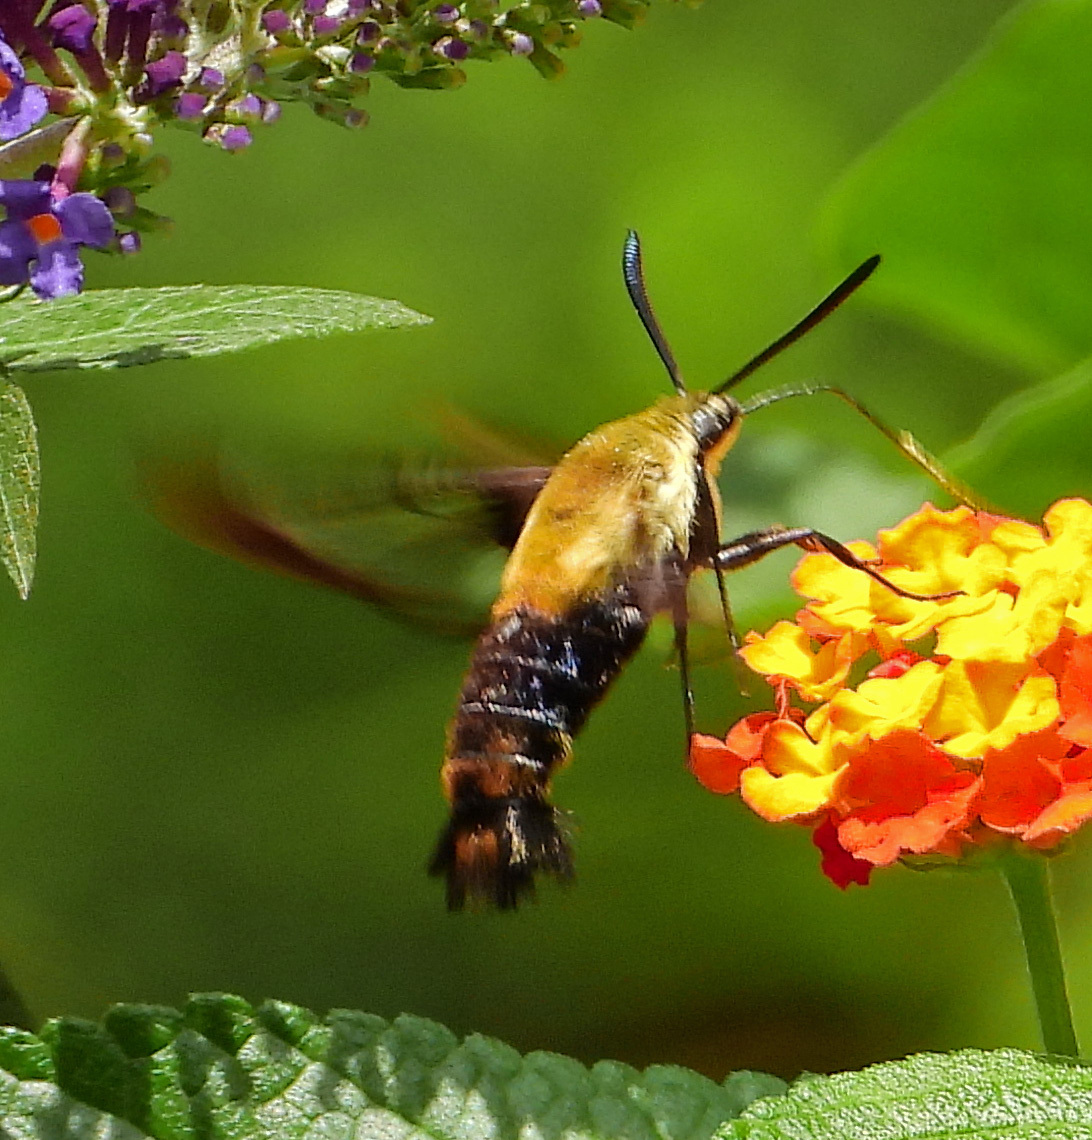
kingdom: Animalia
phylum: Arthropoda
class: Insecta
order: Lepidoptera
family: Sphingidae
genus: Hemaris
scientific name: Hemaris diffinis
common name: Bumblebee moth
